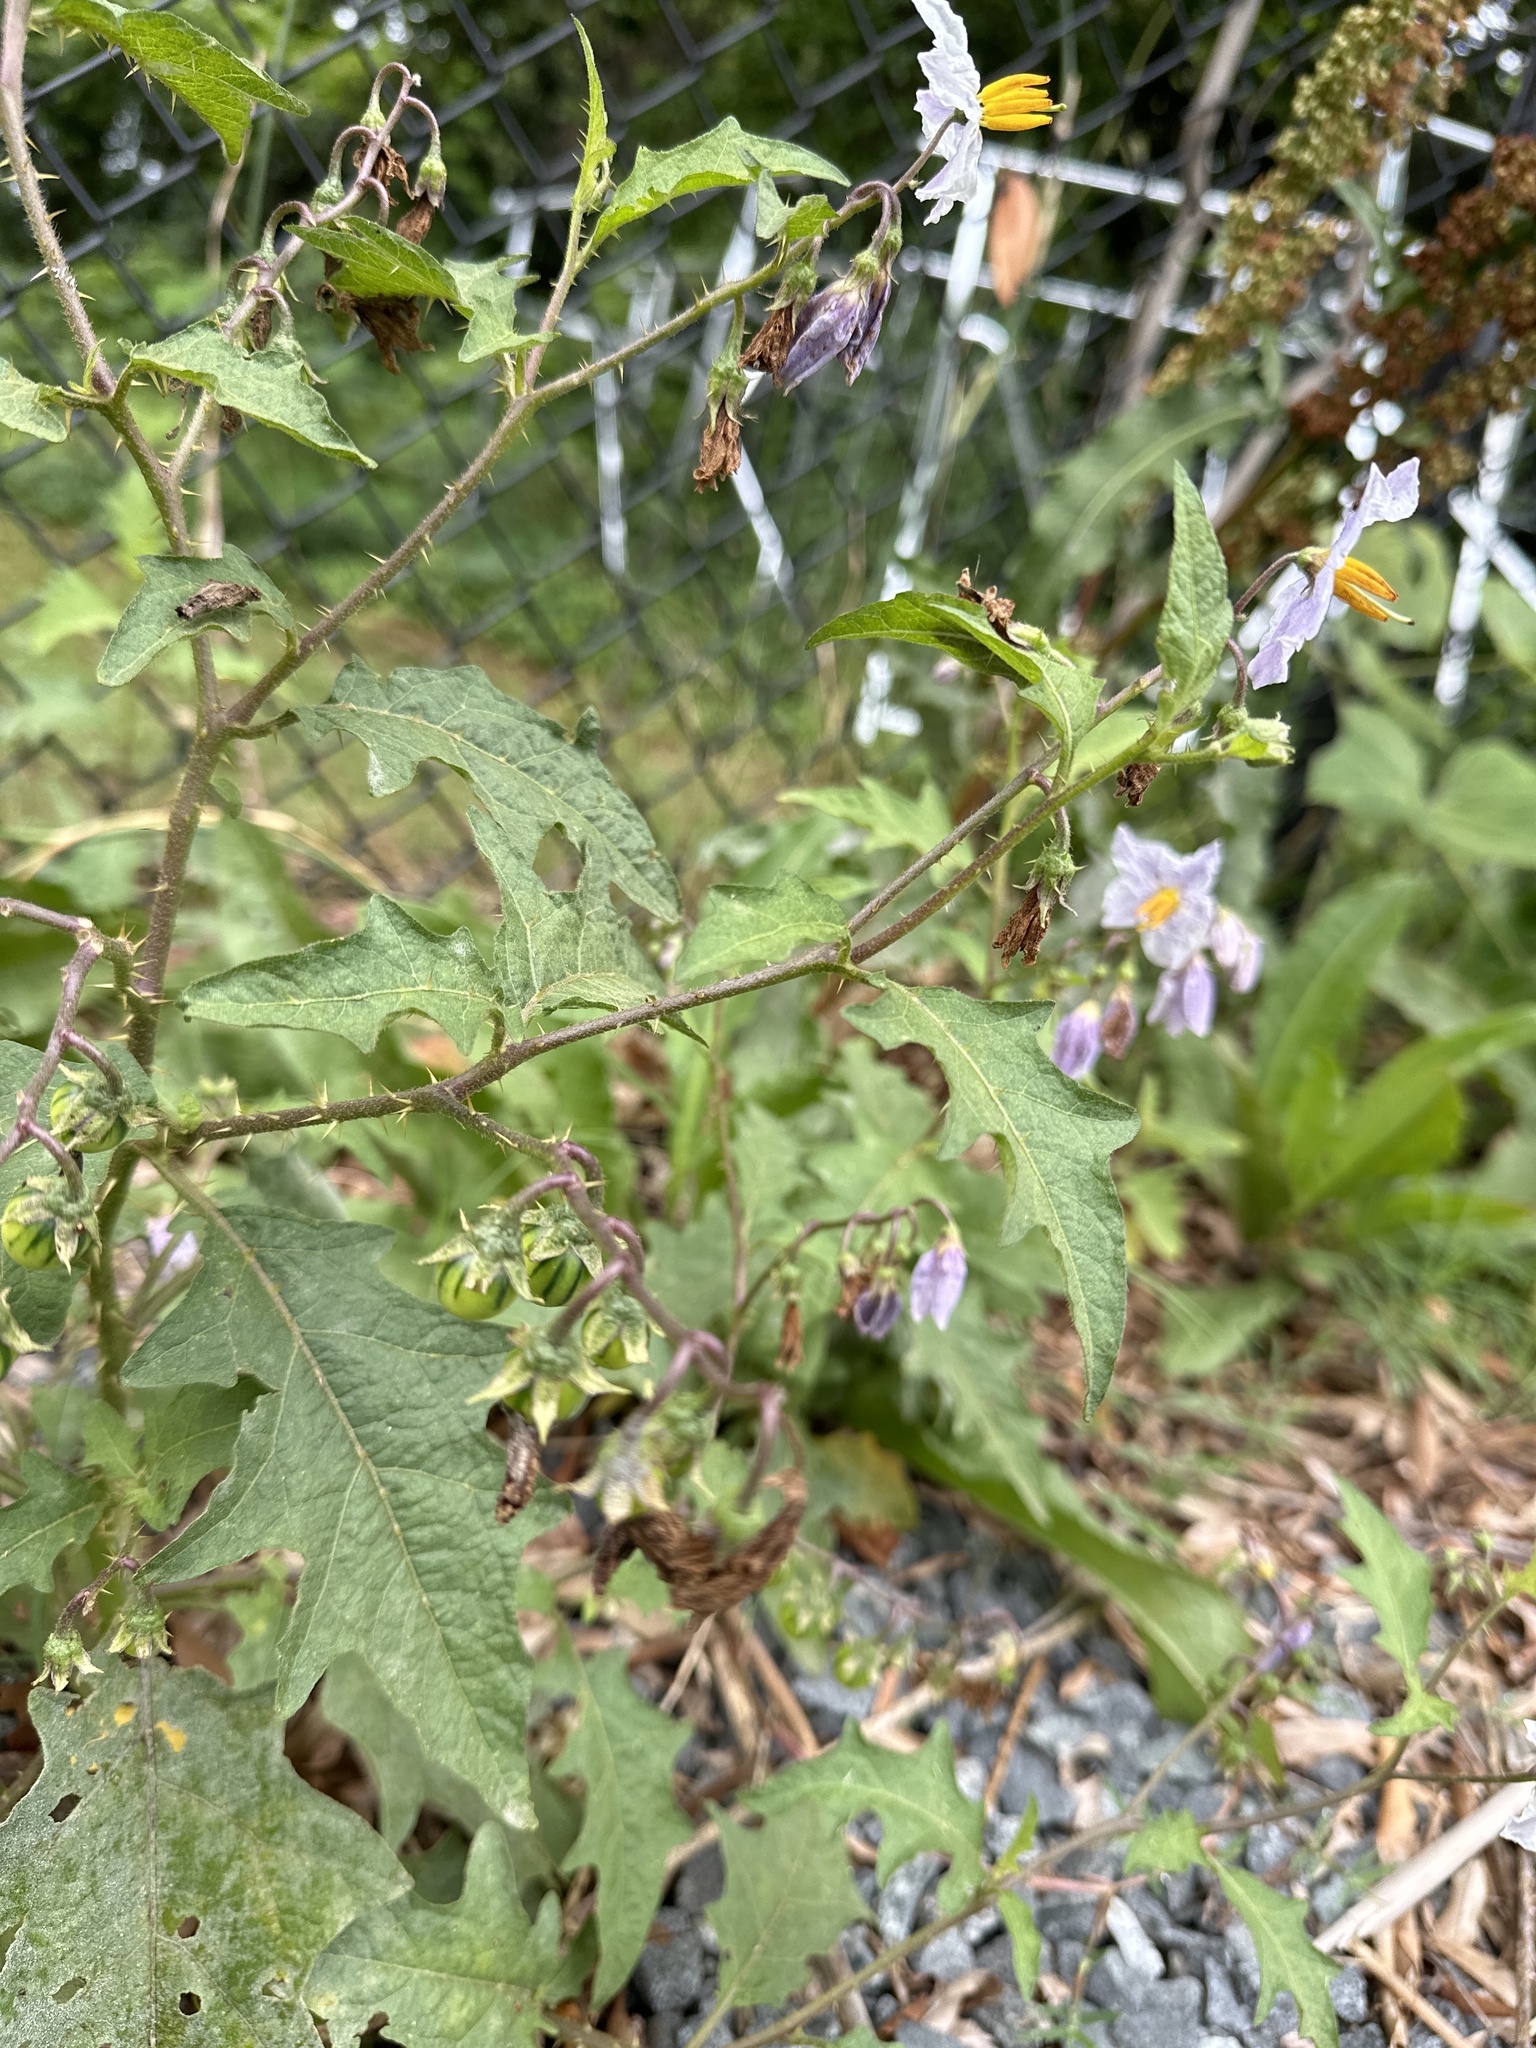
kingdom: Plantae
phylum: Tracheophyta
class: Magnoliopsida
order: Solanales
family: Solanaceae
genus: Solanum
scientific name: Solanum carolinense
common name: Horse-nettle
